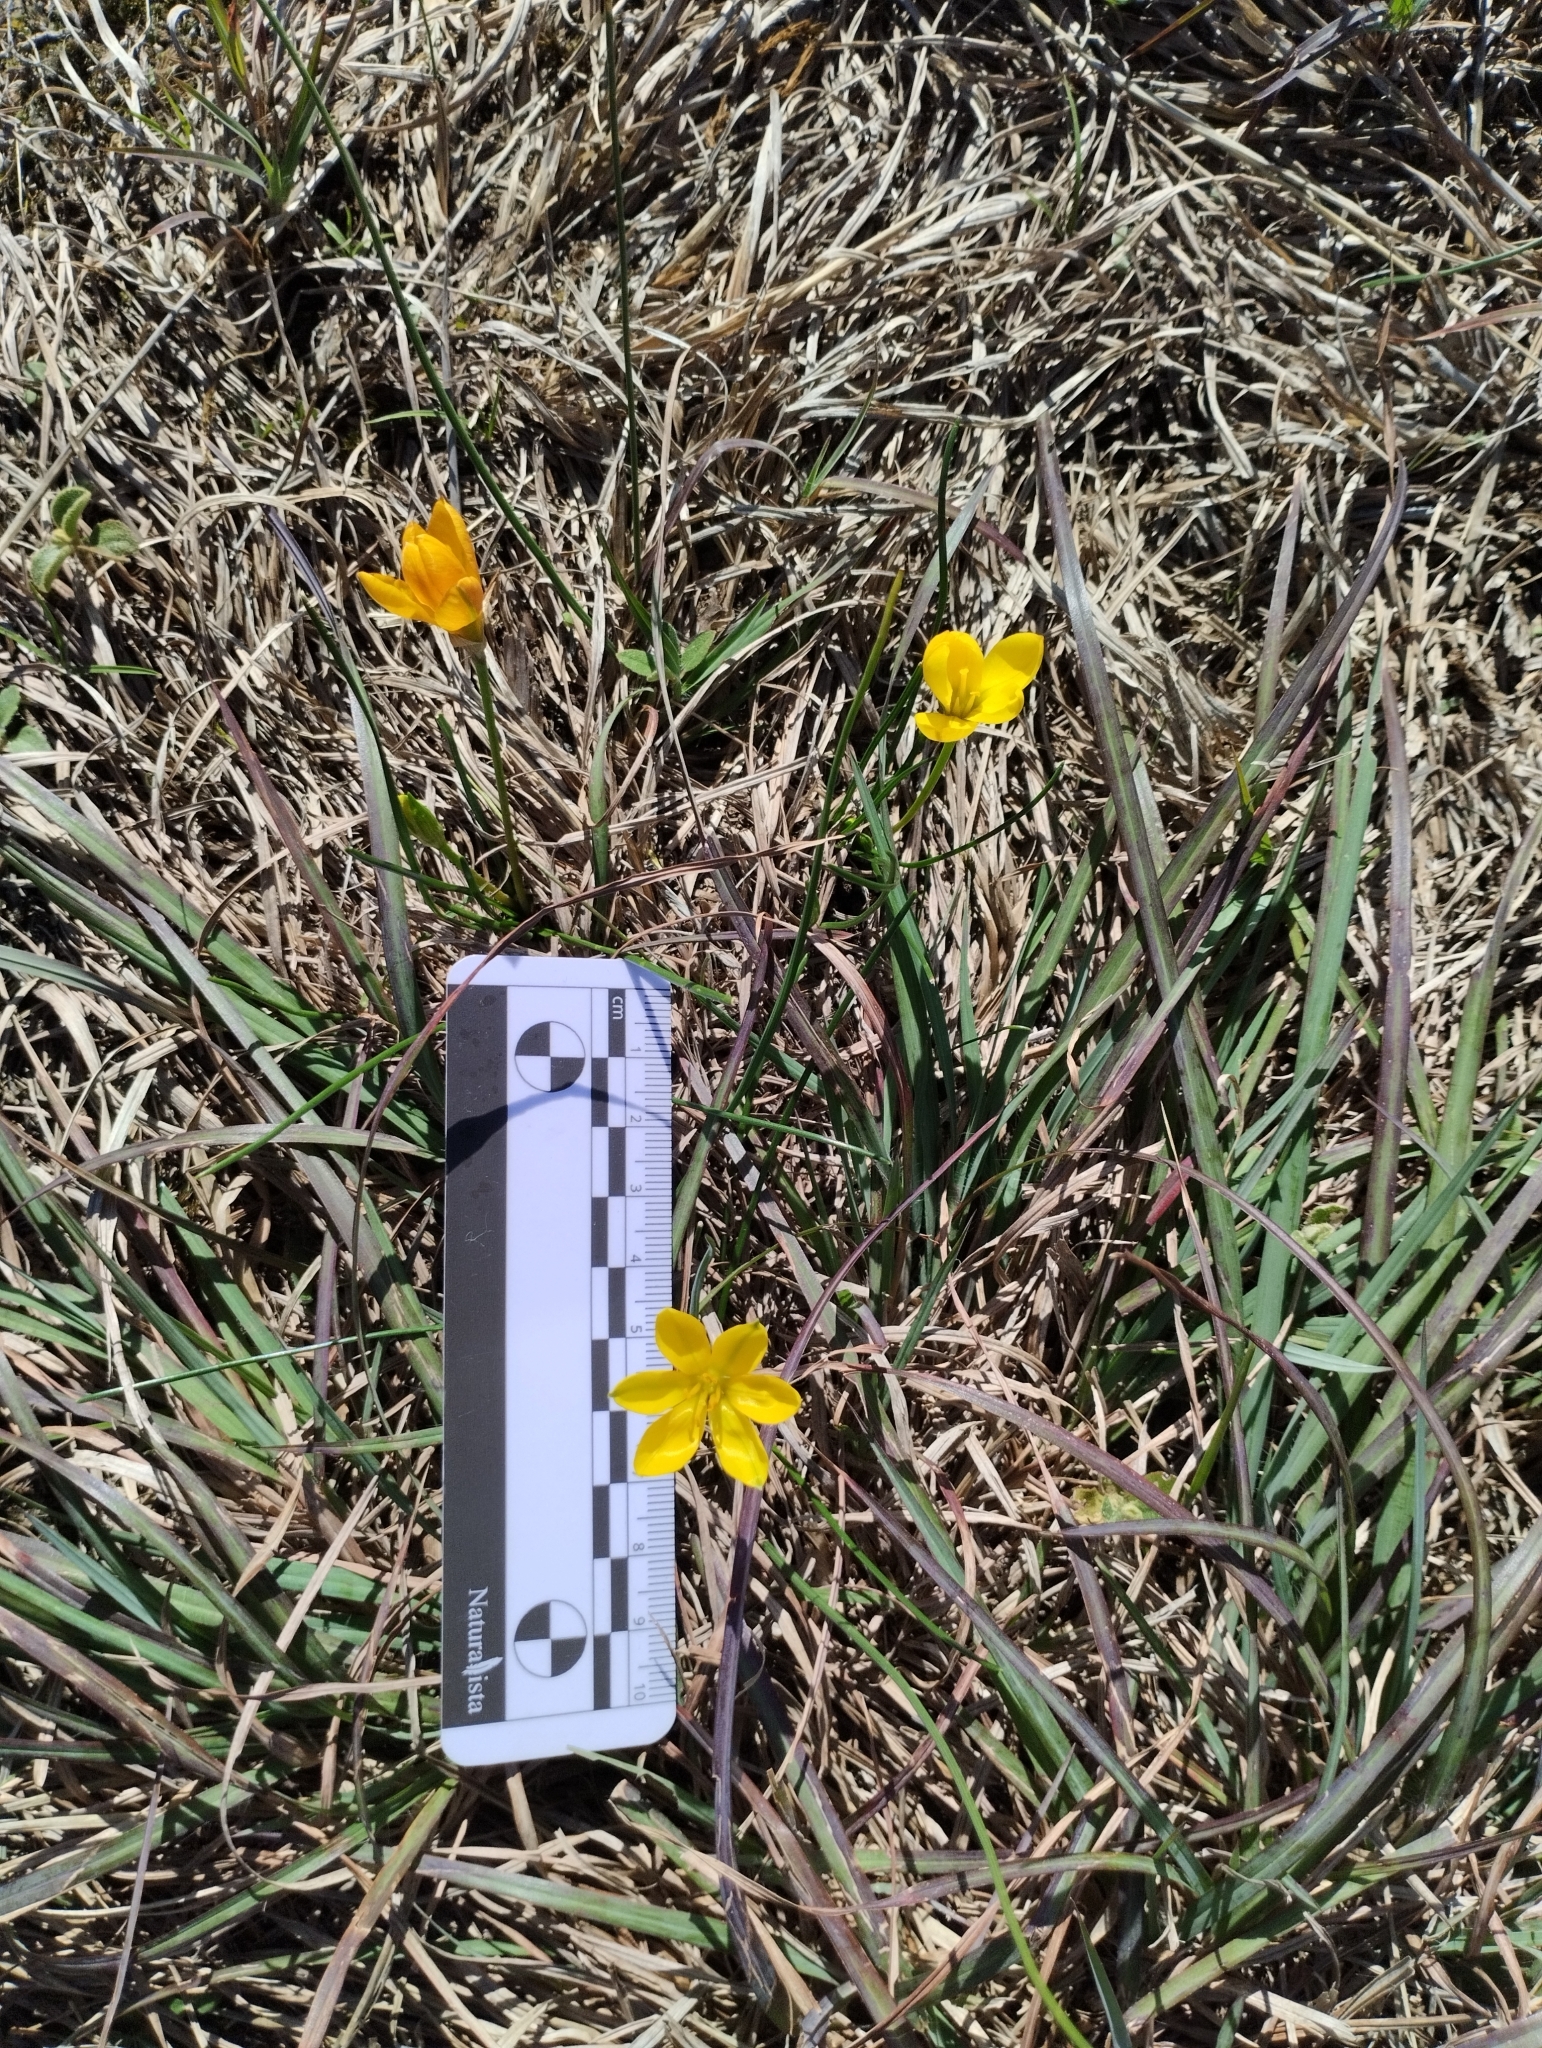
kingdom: Plantae
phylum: Tracheophyta
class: Liliopsida
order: Asparagales
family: Amaryllidaceae
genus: Nothoscordum
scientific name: Nothoscordum hirtellum
